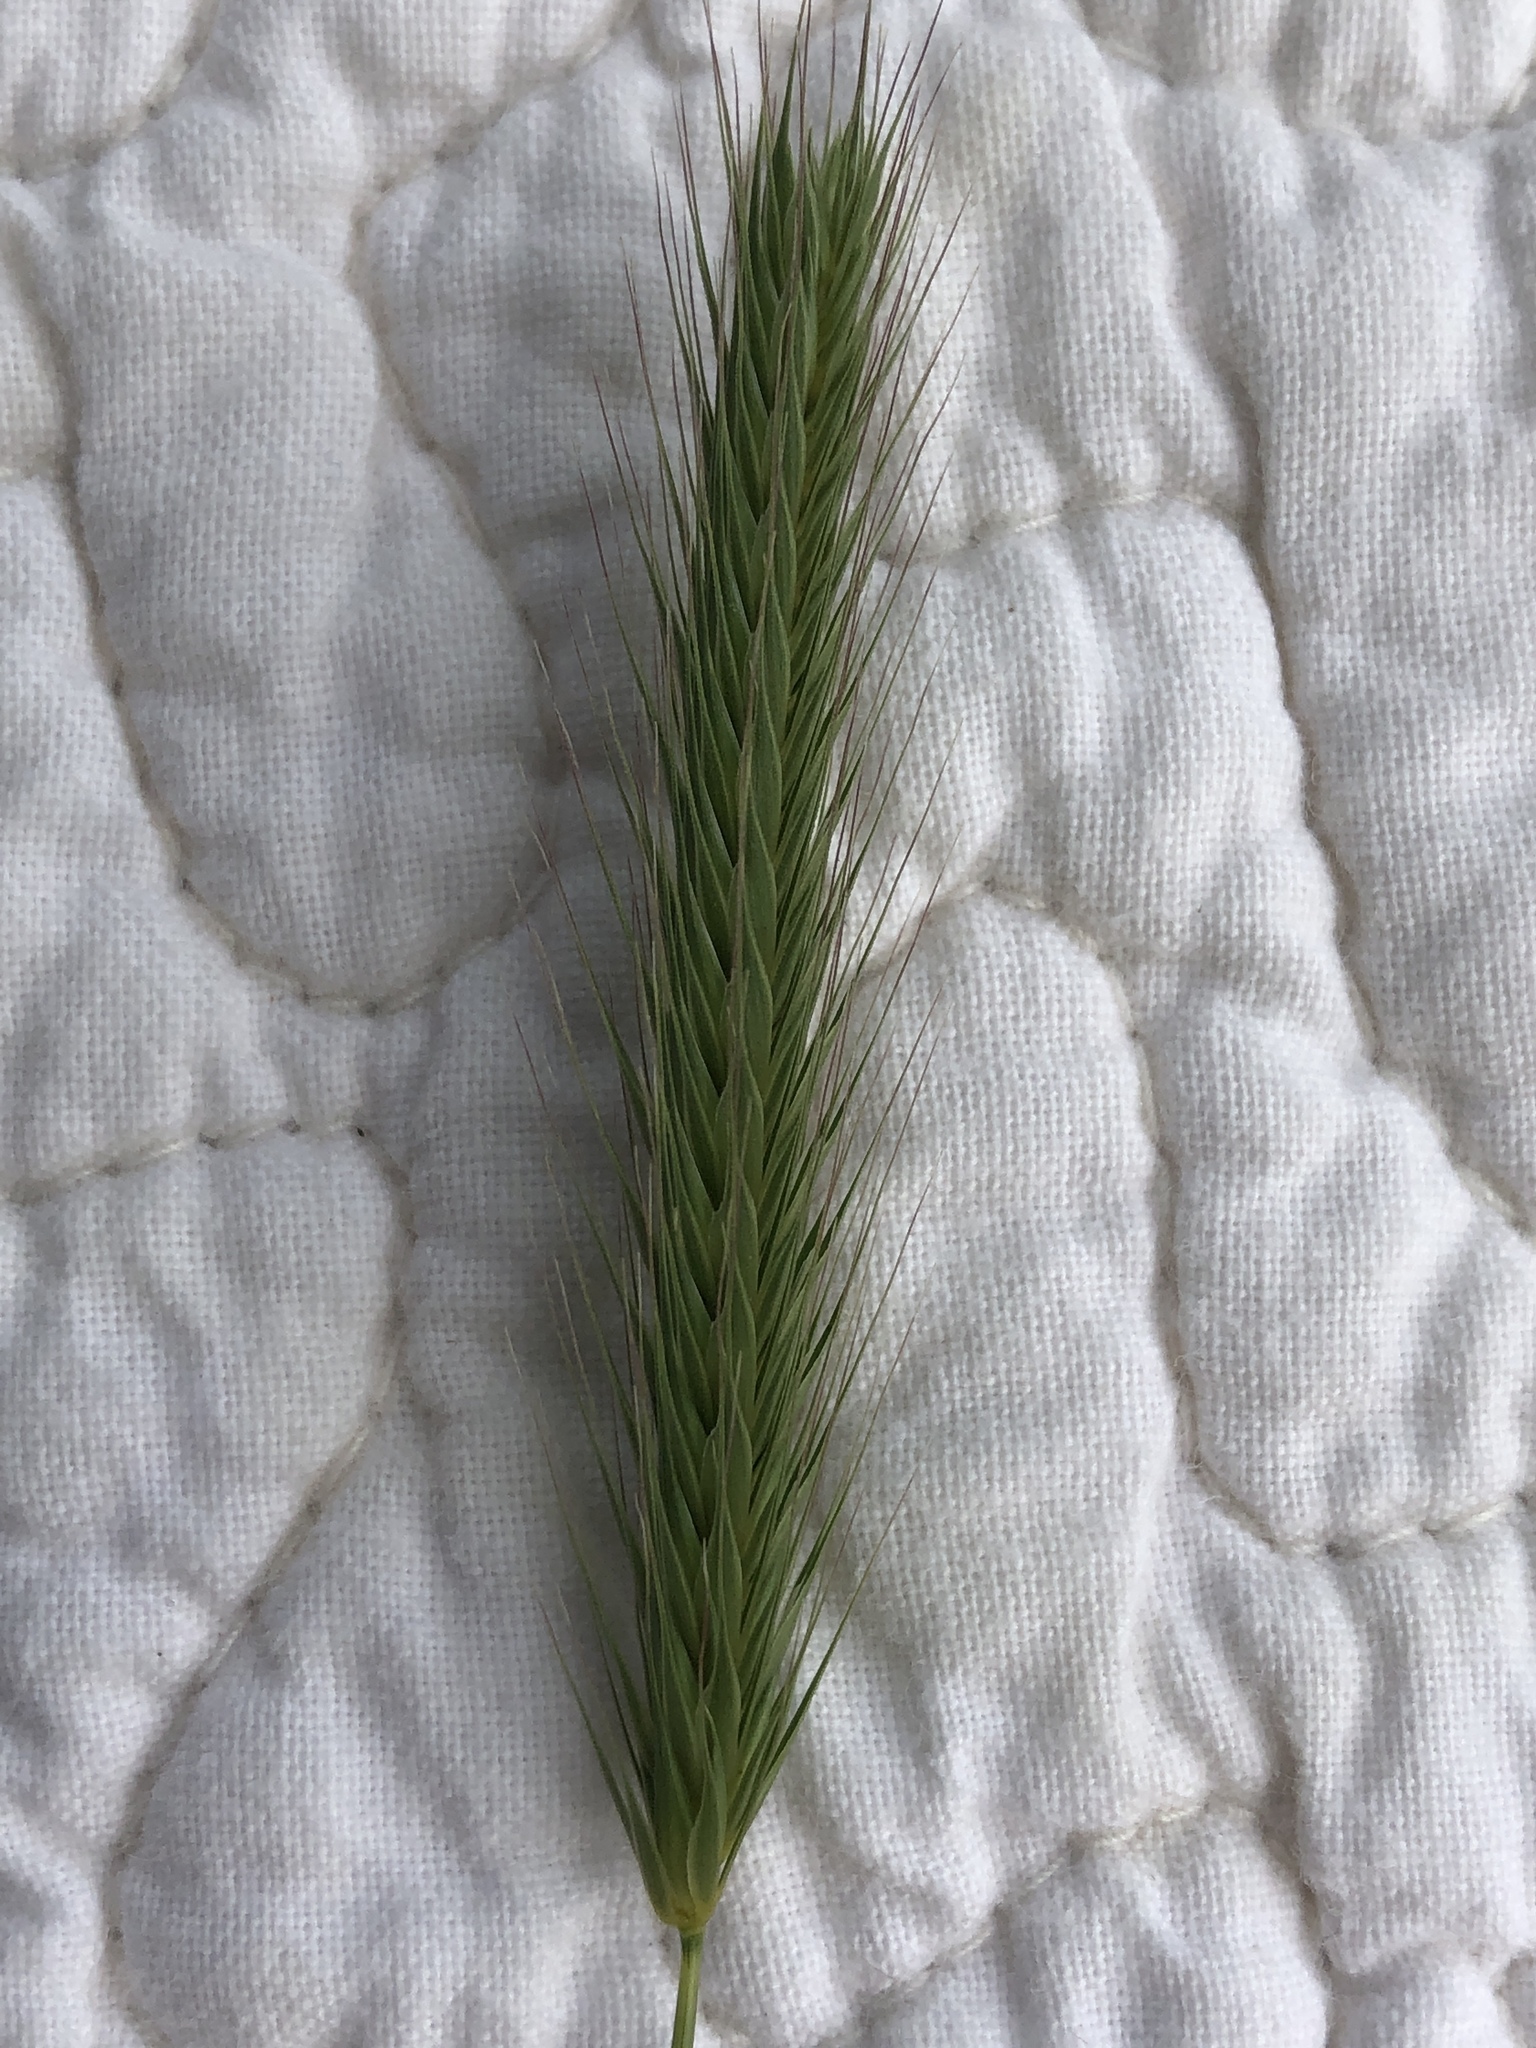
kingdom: Plantae
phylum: Tracheophyta
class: Liliopsida
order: Poales
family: Poaceae
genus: Hordeum
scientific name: Hordeum pusillum
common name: Little barley
